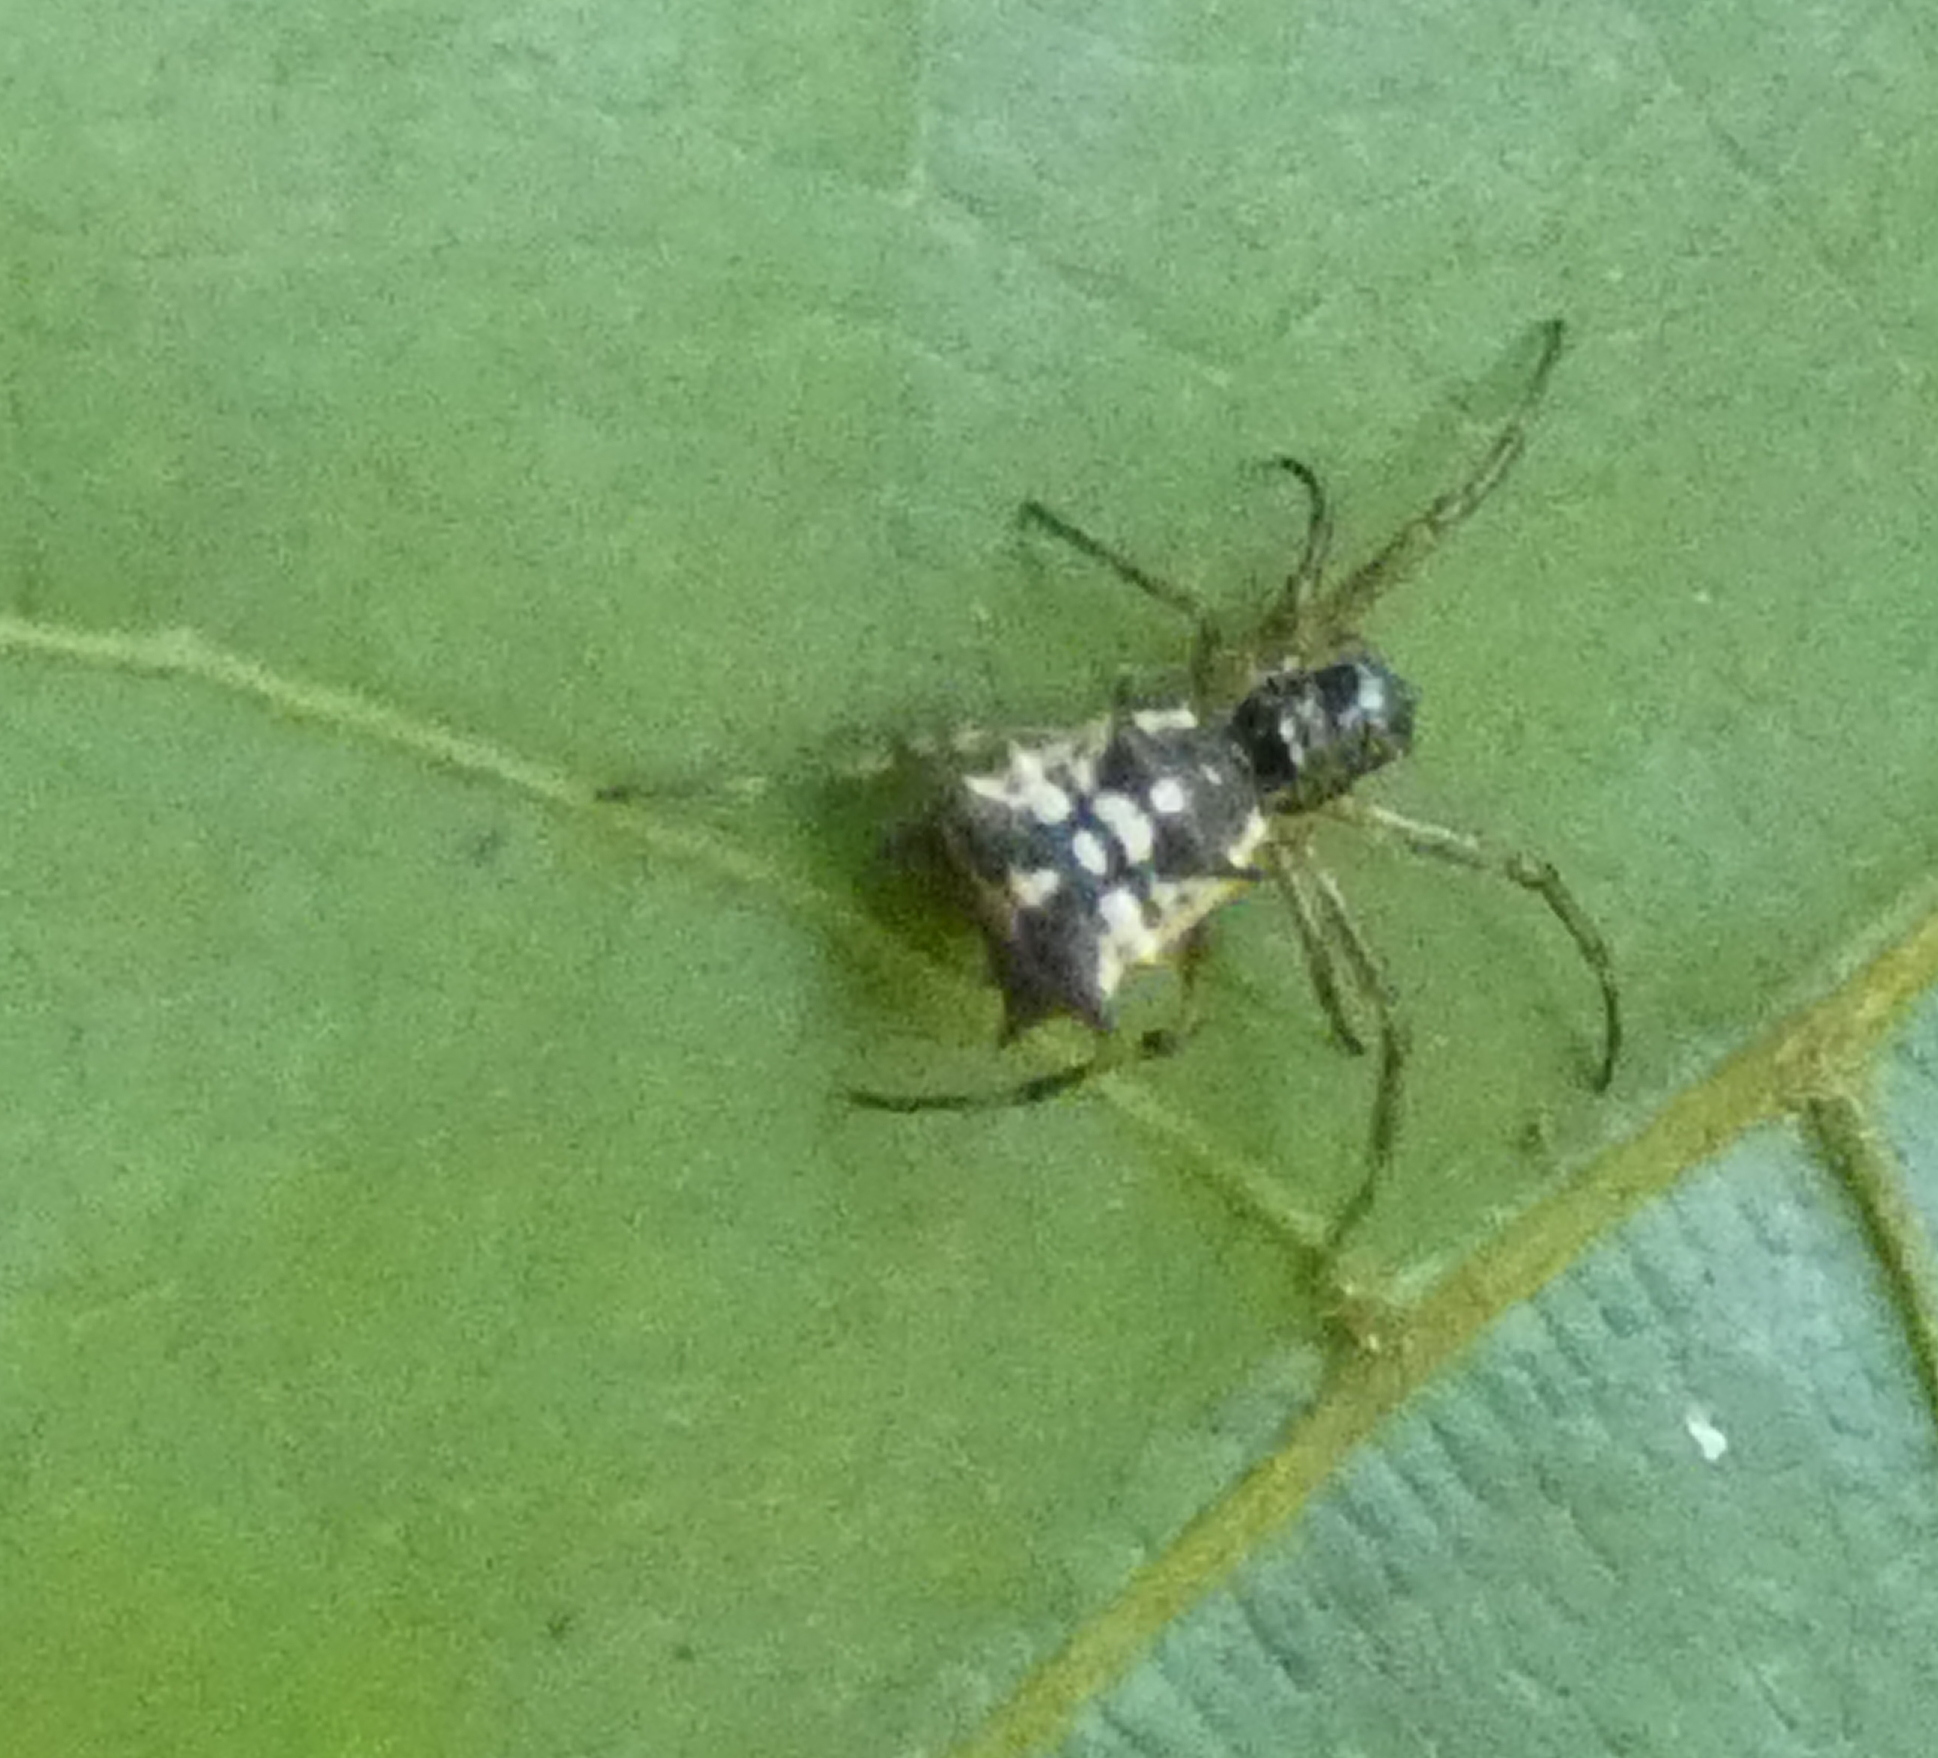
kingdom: Animalia
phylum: Arthropoda
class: Arachnida
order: Araneae
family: Araneidae
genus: Micrathena
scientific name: Micrathena picta
